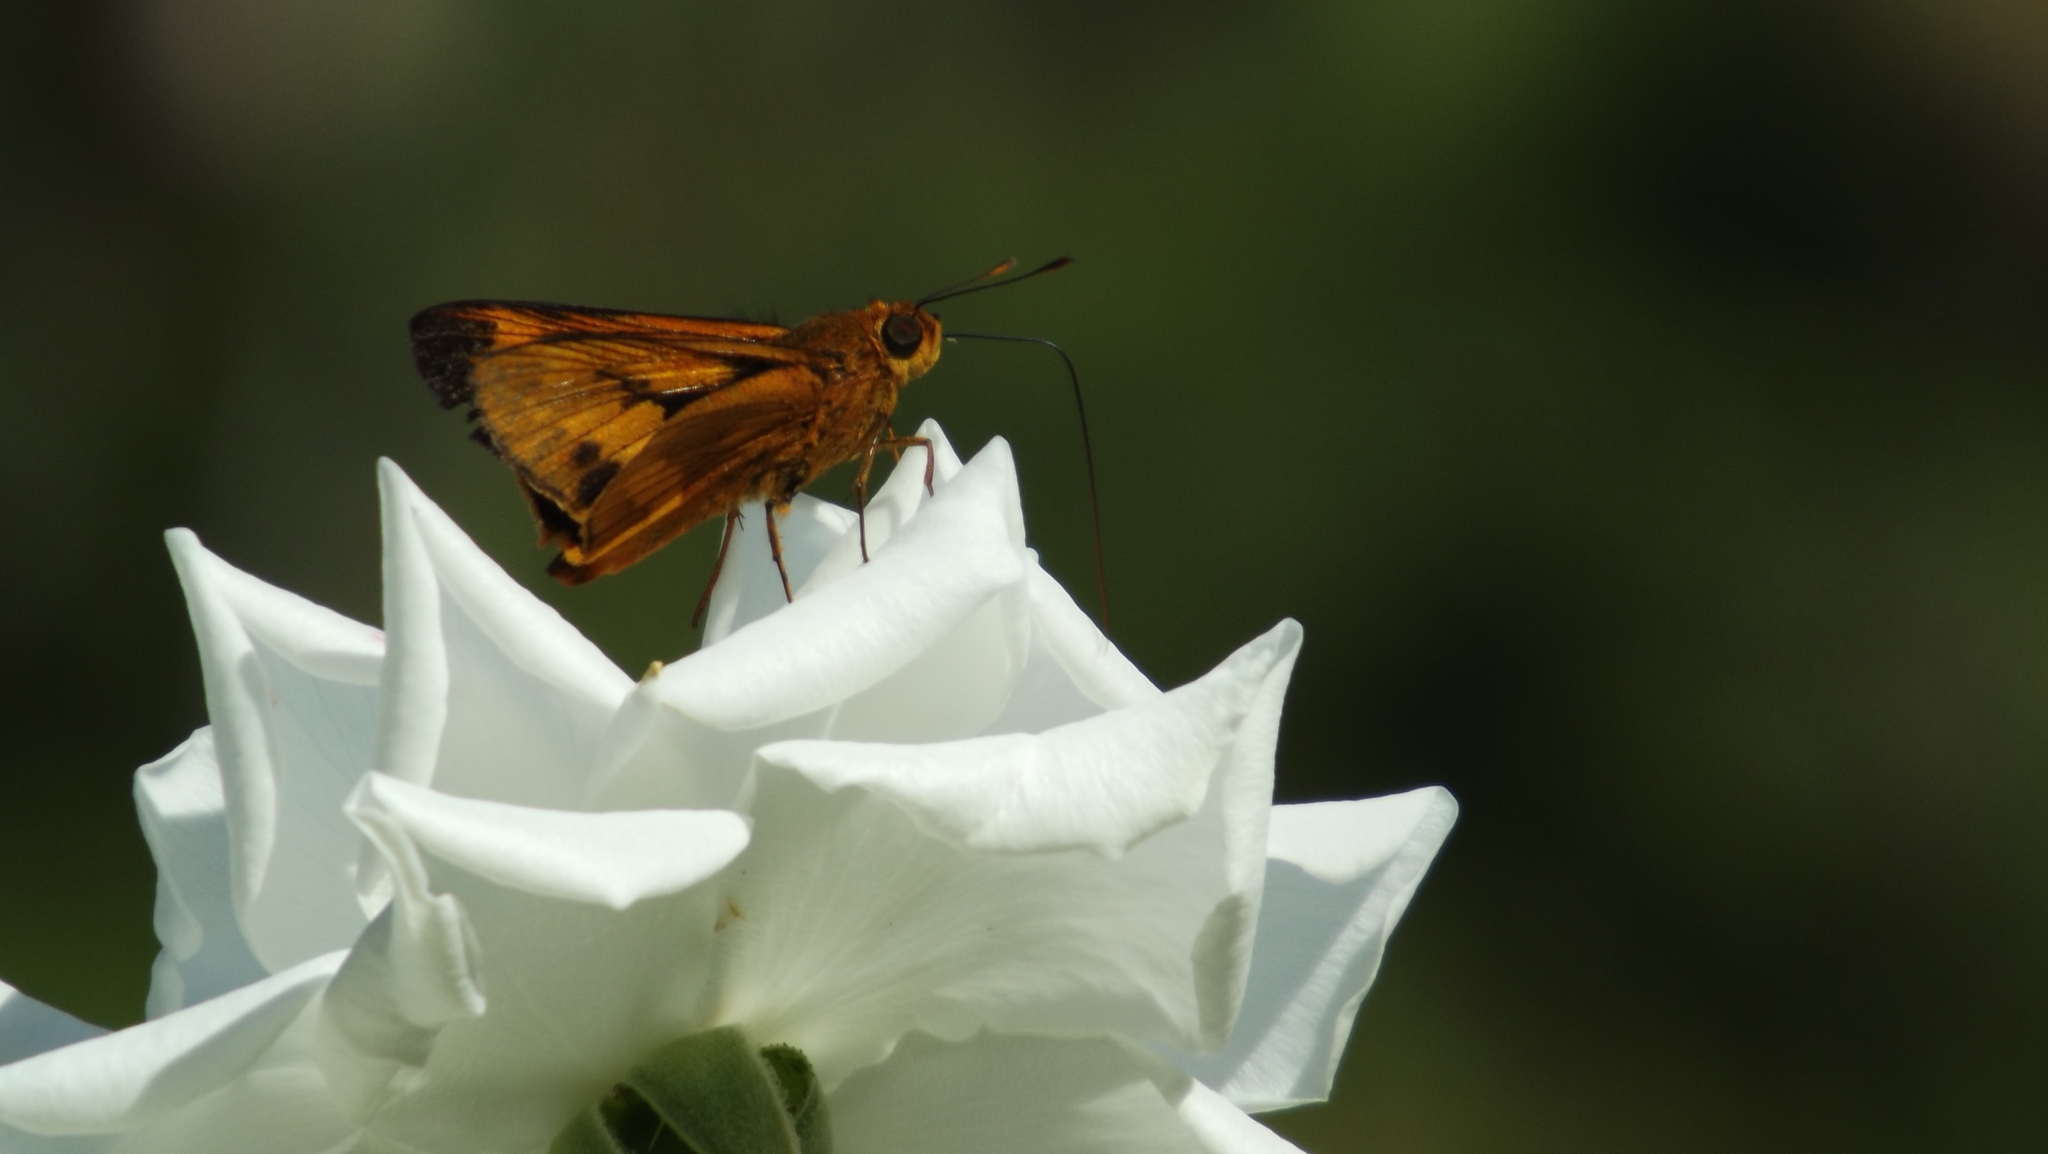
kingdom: Animalia
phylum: Arthropoda
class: Insecta
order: Lepidoptera
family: Hesperiidae
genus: Cephrenes
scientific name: Cephrenes augiades
